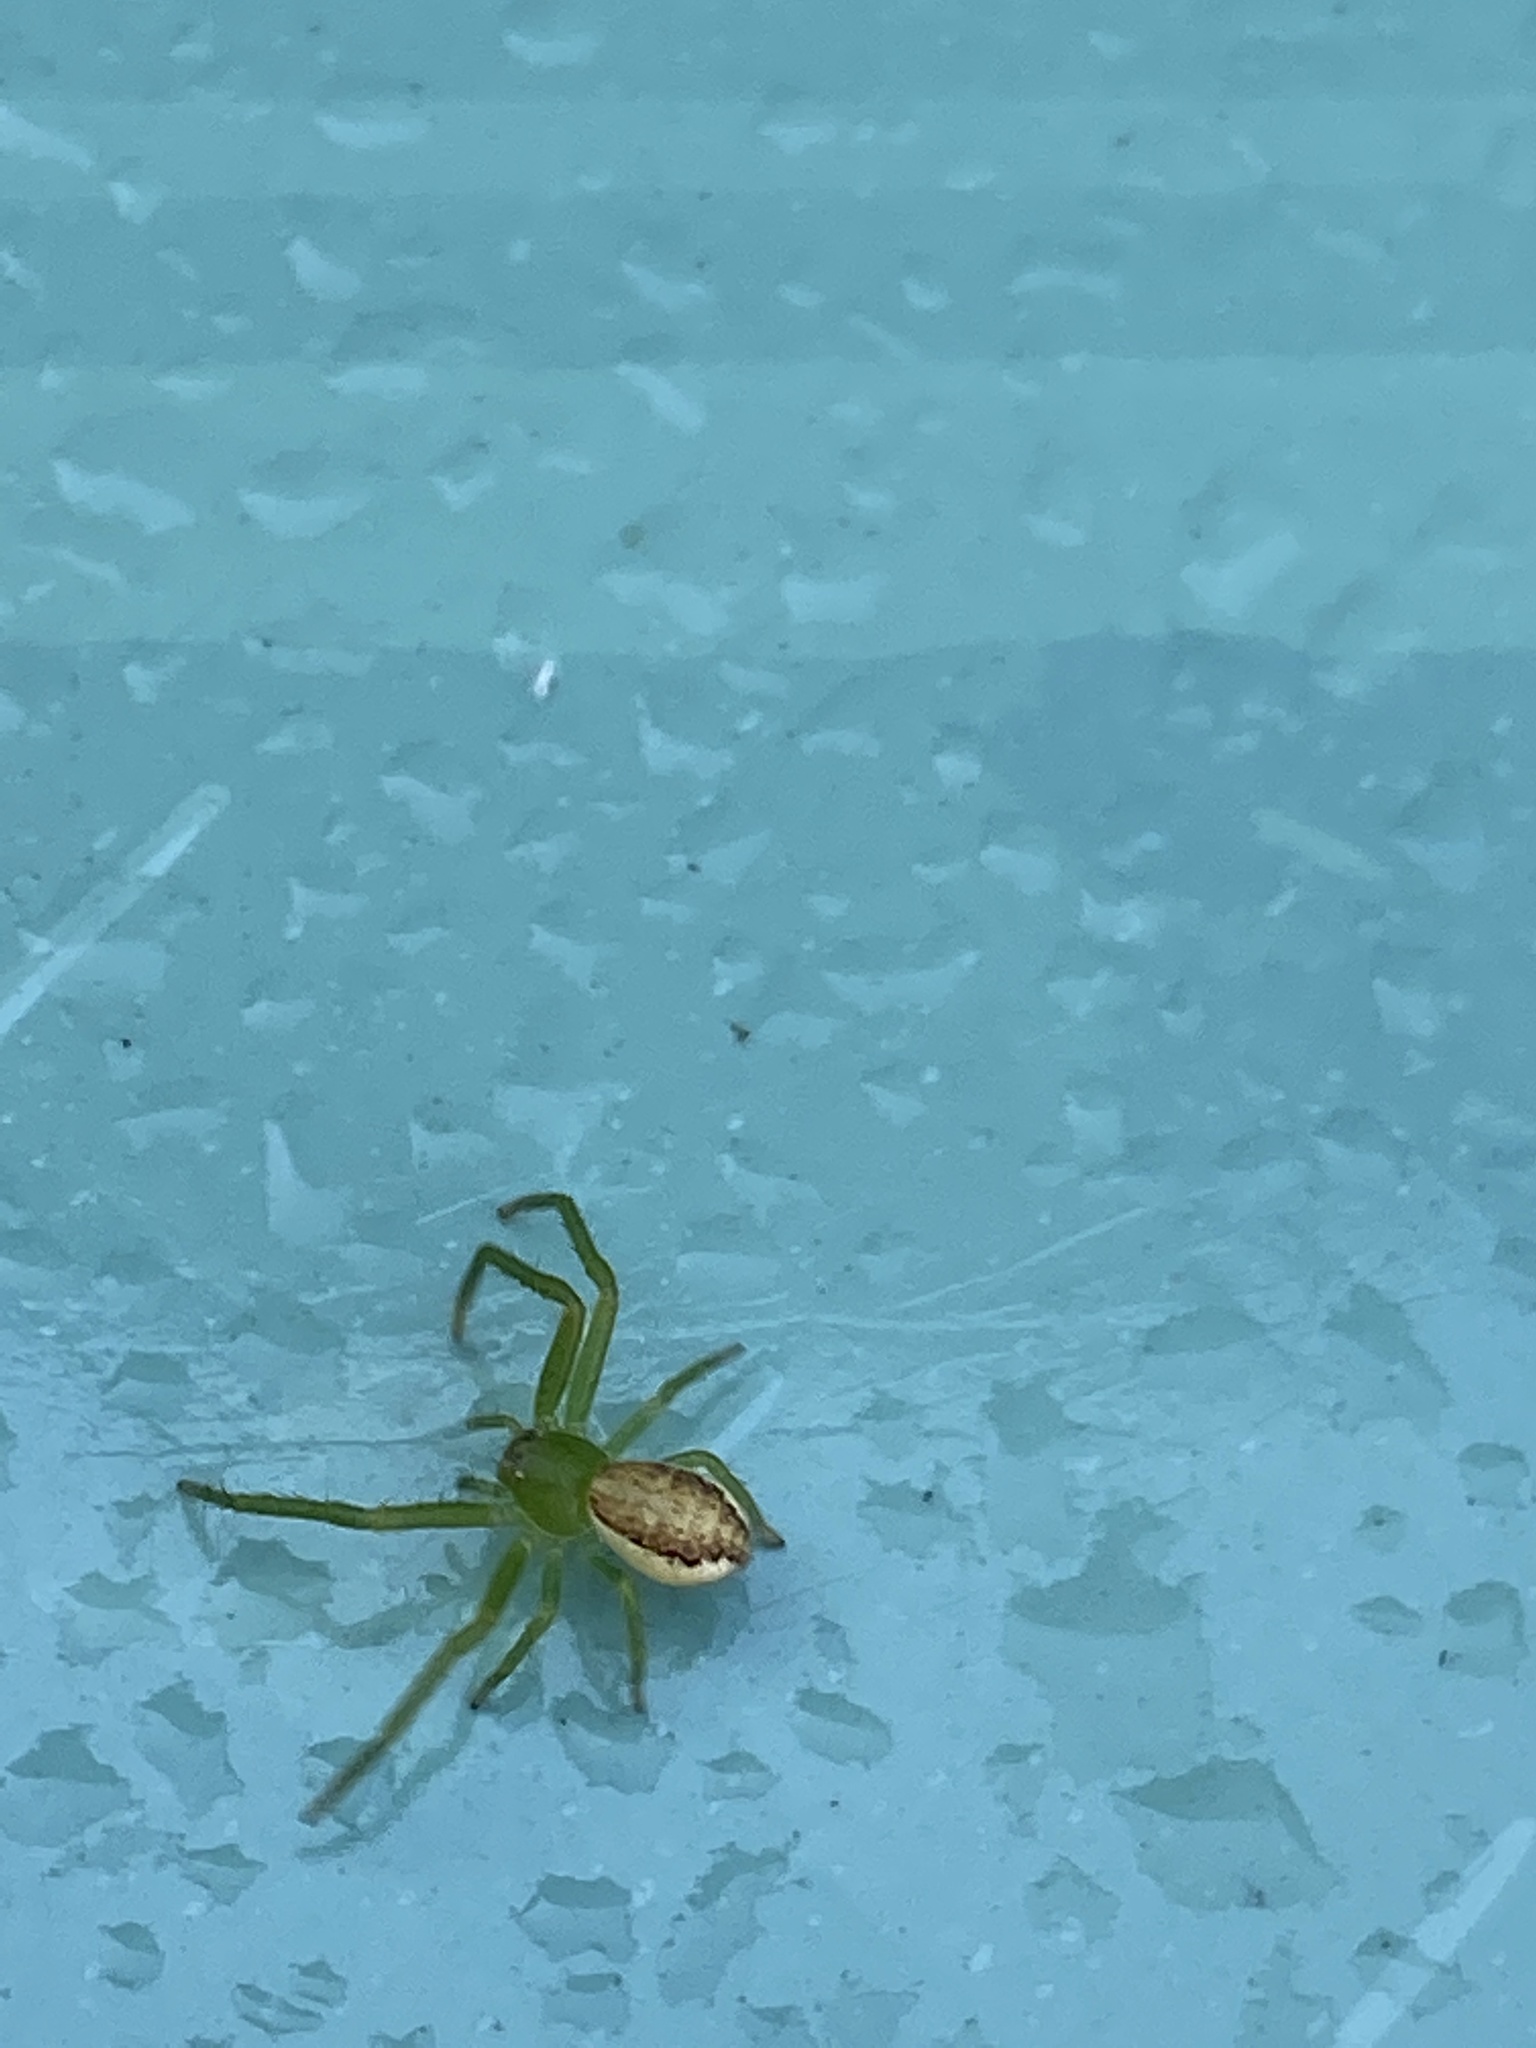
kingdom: Animalia
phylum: Arthropoda
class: Arachnida
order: Araneae
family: Thomisidae
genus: Diaea
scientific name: Diaea dorsata
